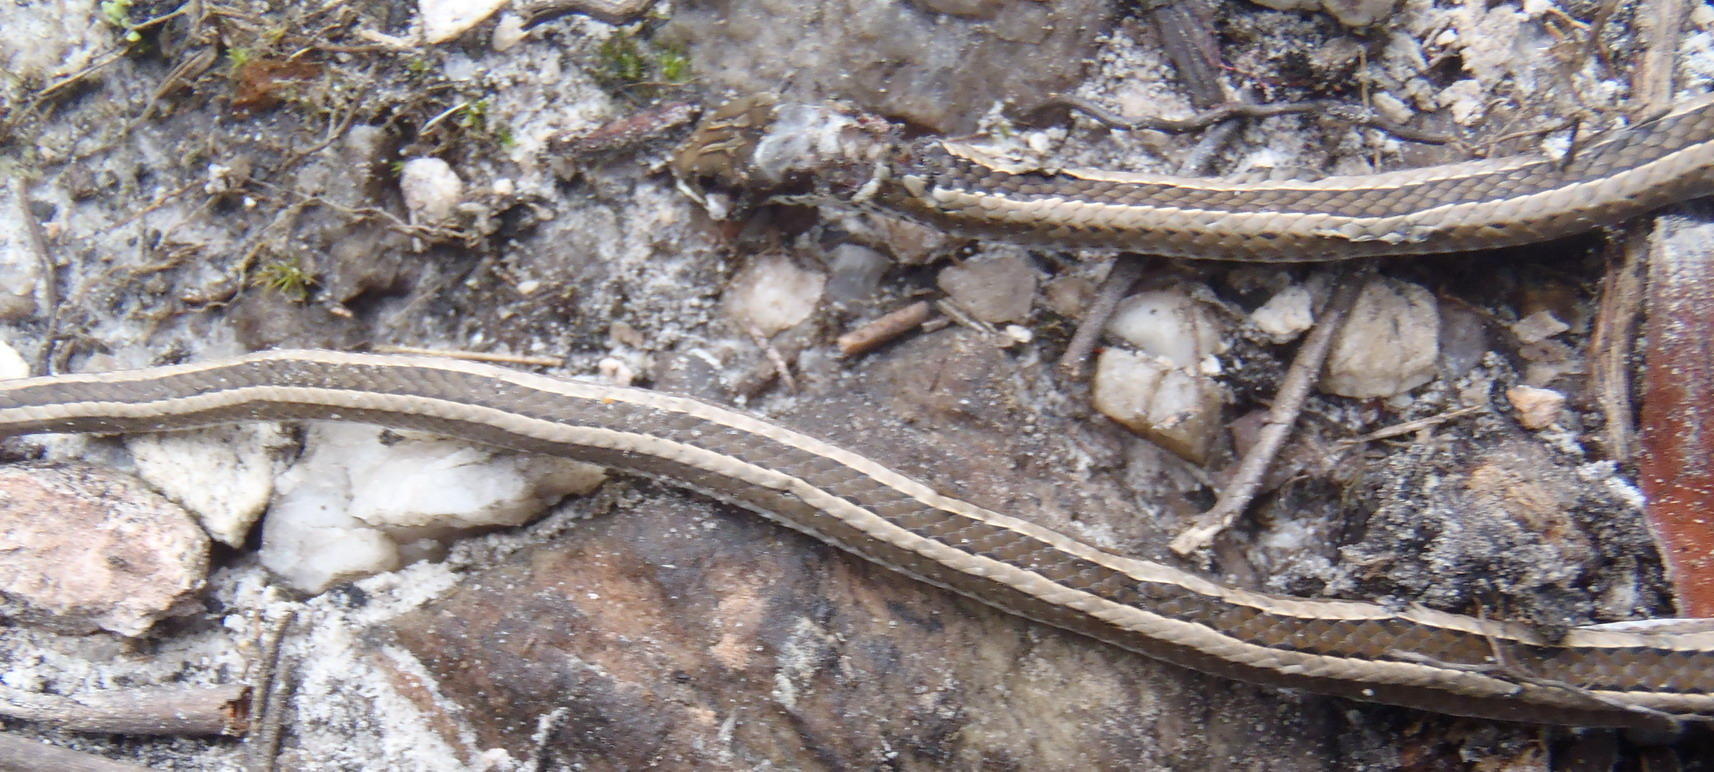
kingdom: Animalia
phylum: Chordata
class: Squamata
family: Psammophiidae
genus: Psammophis
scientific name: Psammophis crucifer
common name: Cross-marked grass snake
